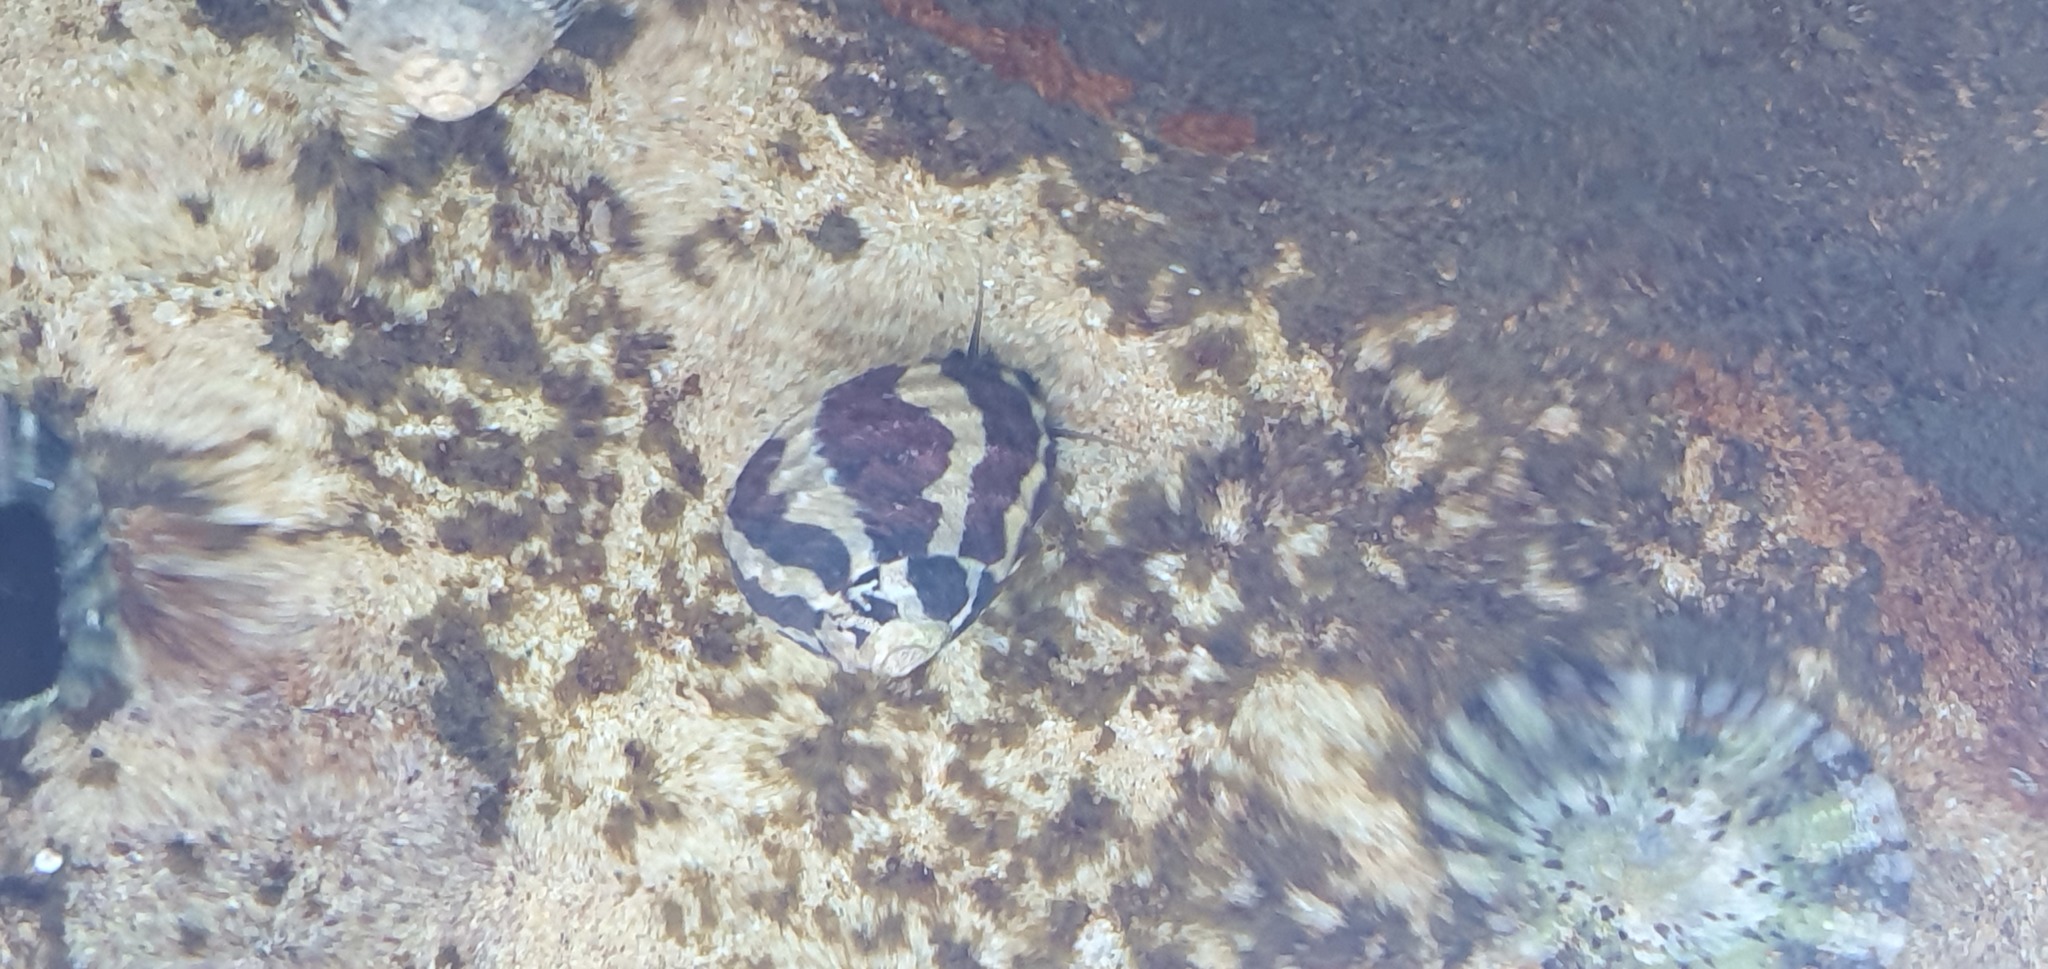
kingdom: Animalia
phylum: Mollusca
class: Gastropoda
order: Trochida
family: Trochidae
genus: Austrocochlea
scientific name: Austrocochlea porcata
